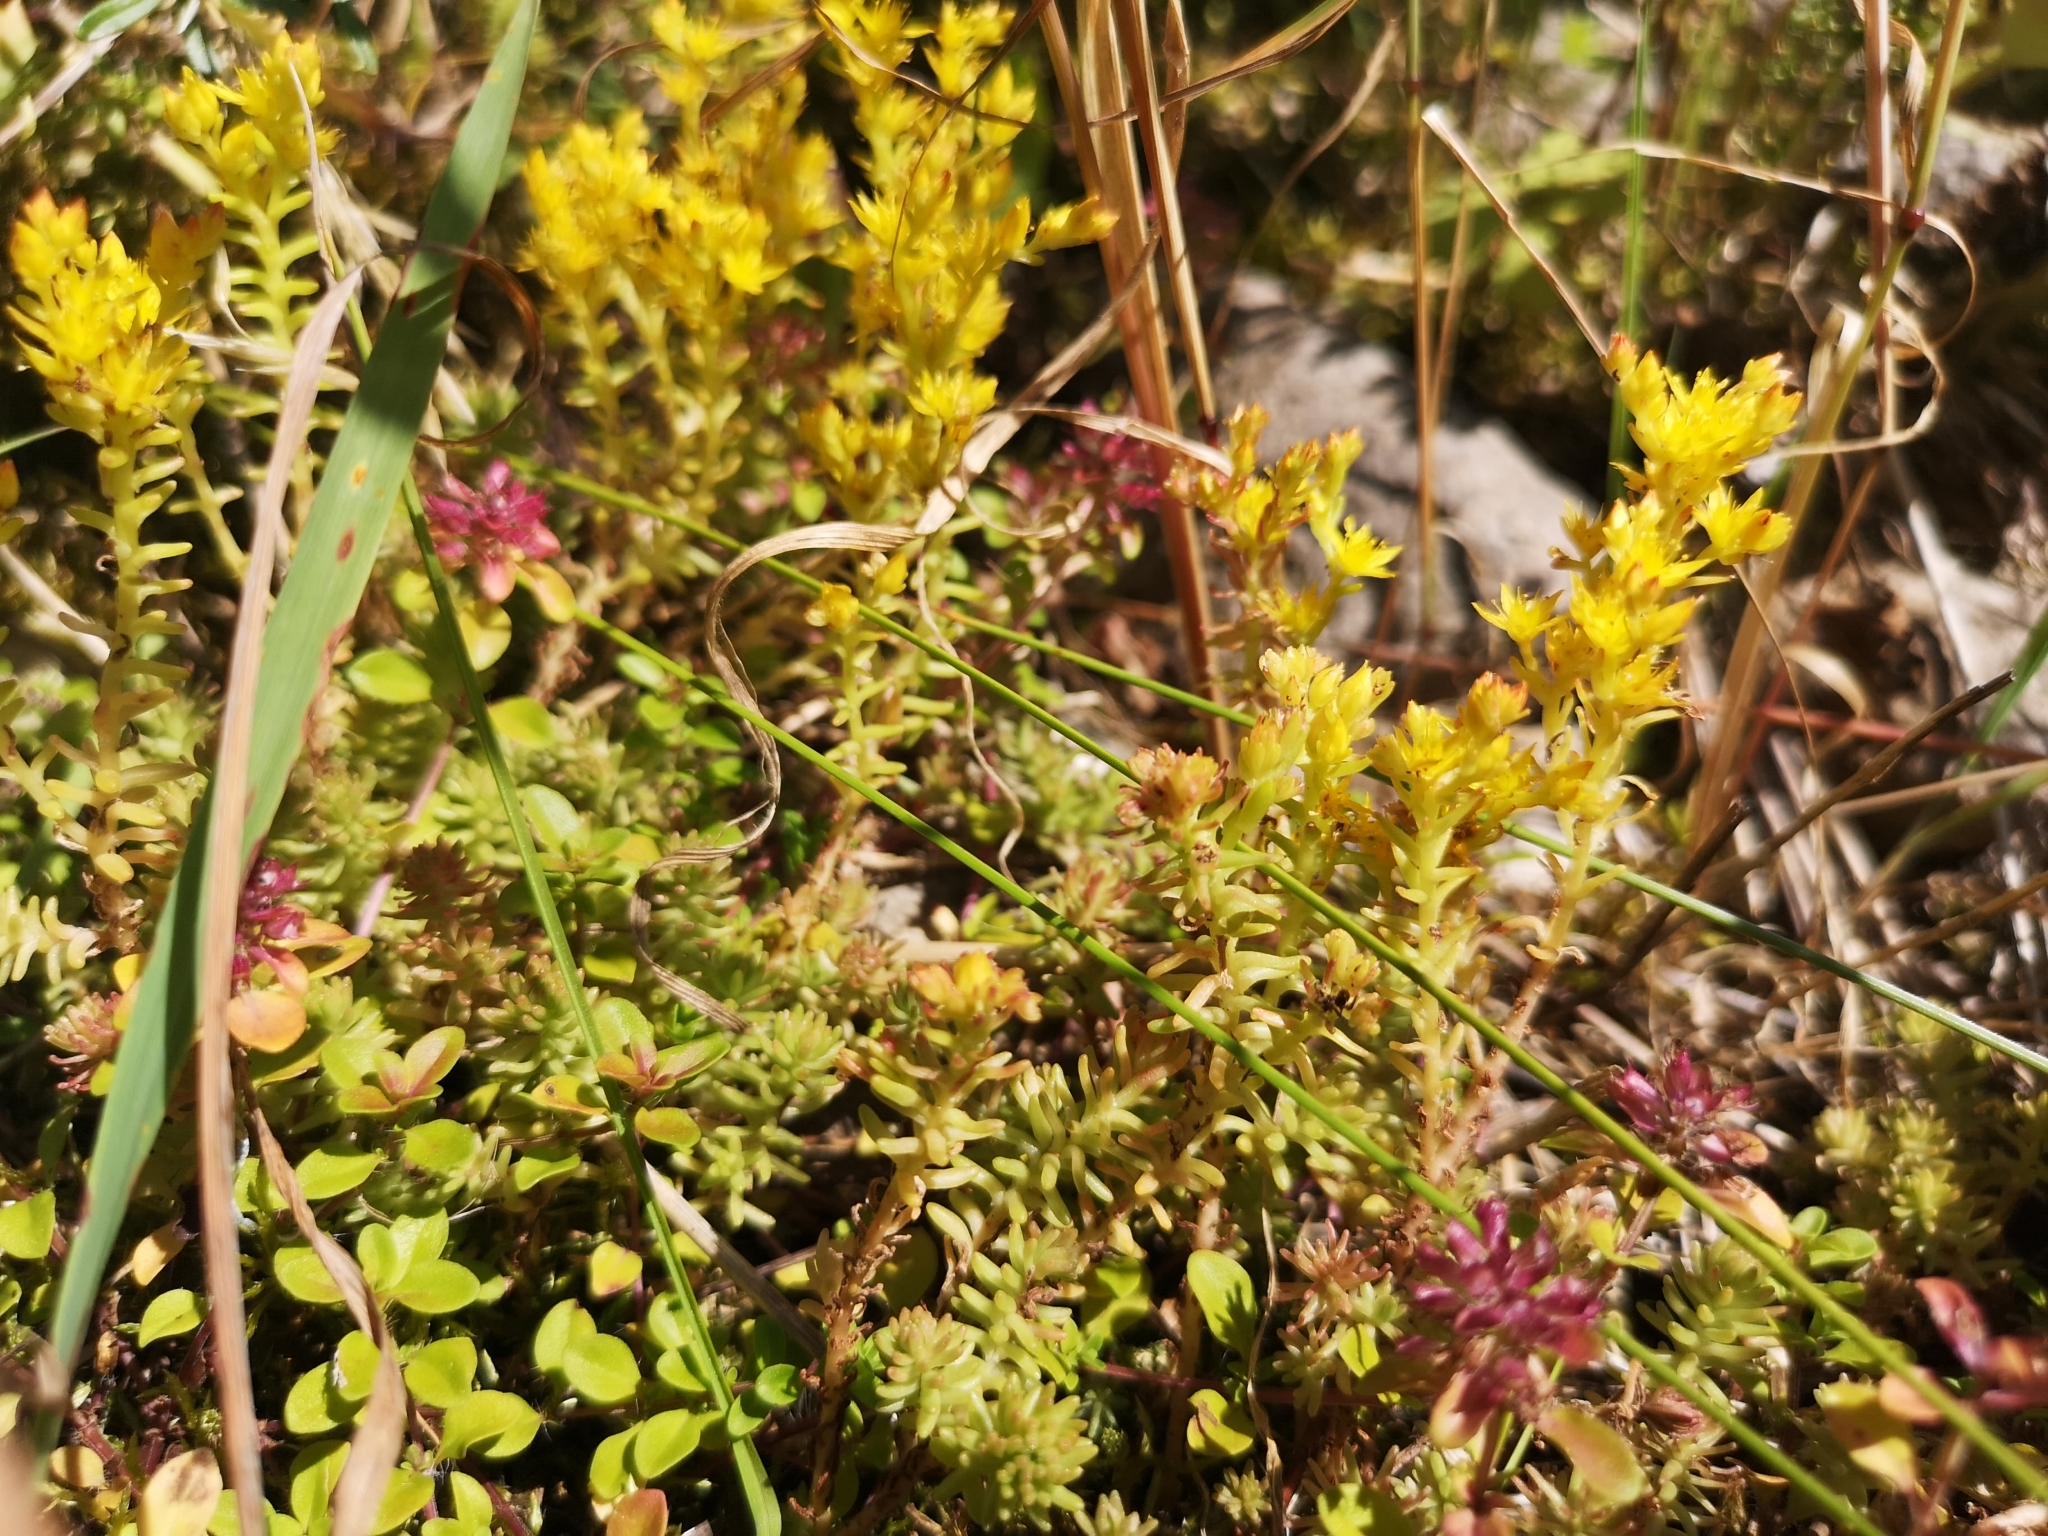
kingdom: Plantae
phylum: Tracheophyta
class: Magnoliopsida
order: Saxifragales
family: Crassulaceae
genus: Sedum
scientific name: Sedum sexangulare
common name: Tasteless stonecrop
